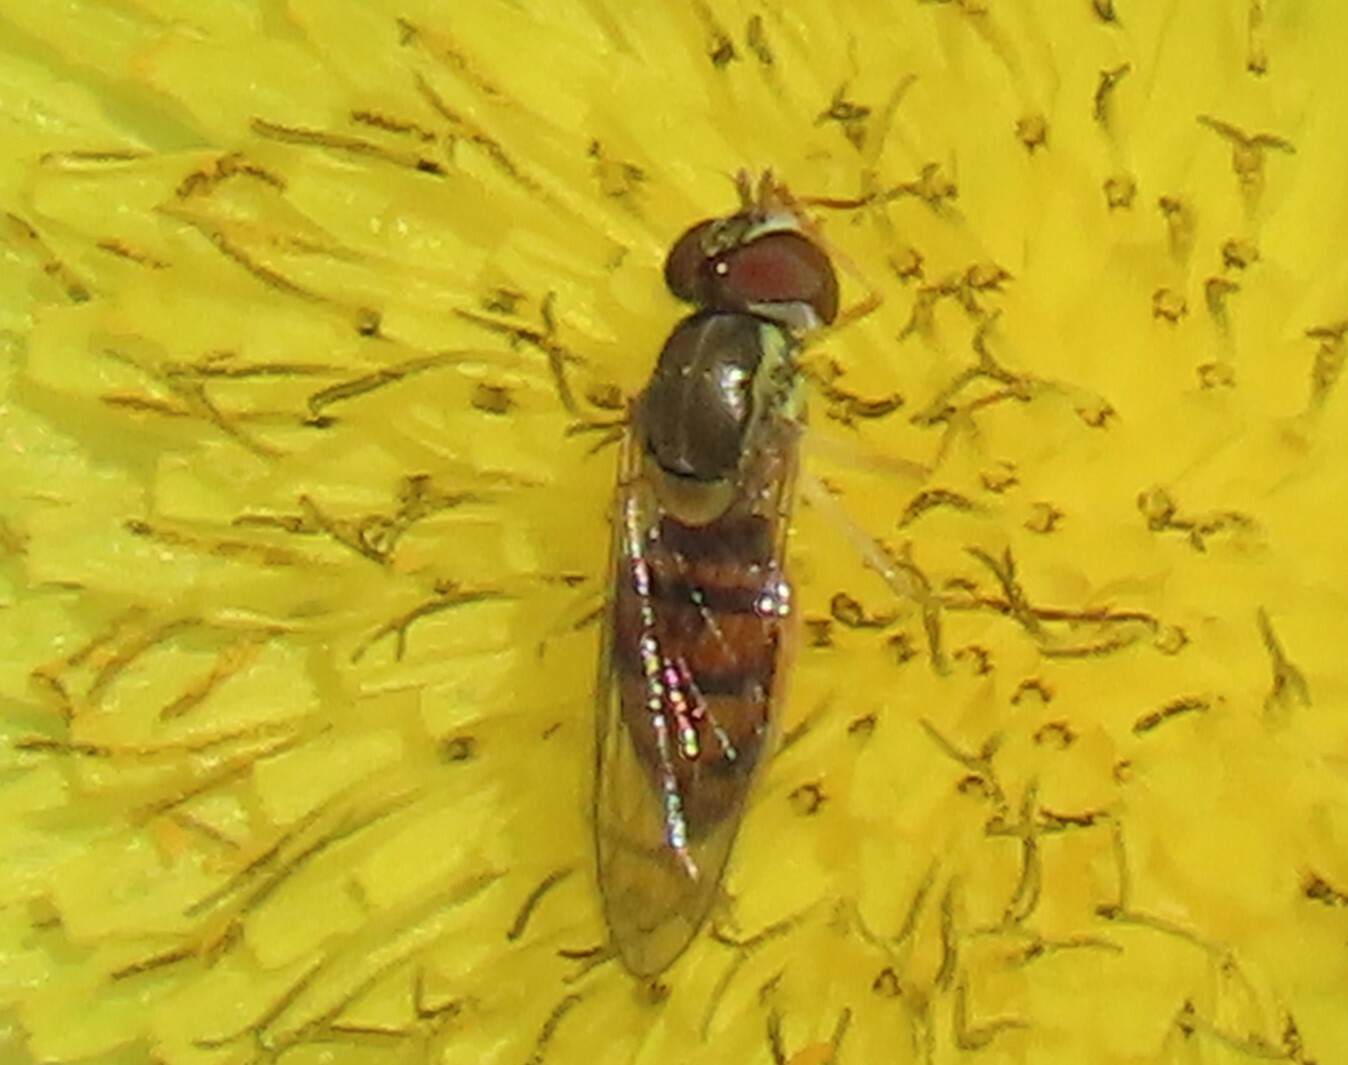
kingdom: Animalia
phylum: Arthropoda
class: Insecta
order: Diptera
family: Syrphidae
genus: Toxomerus
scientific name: Toxomerus marginatus
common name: Syrphid fly
